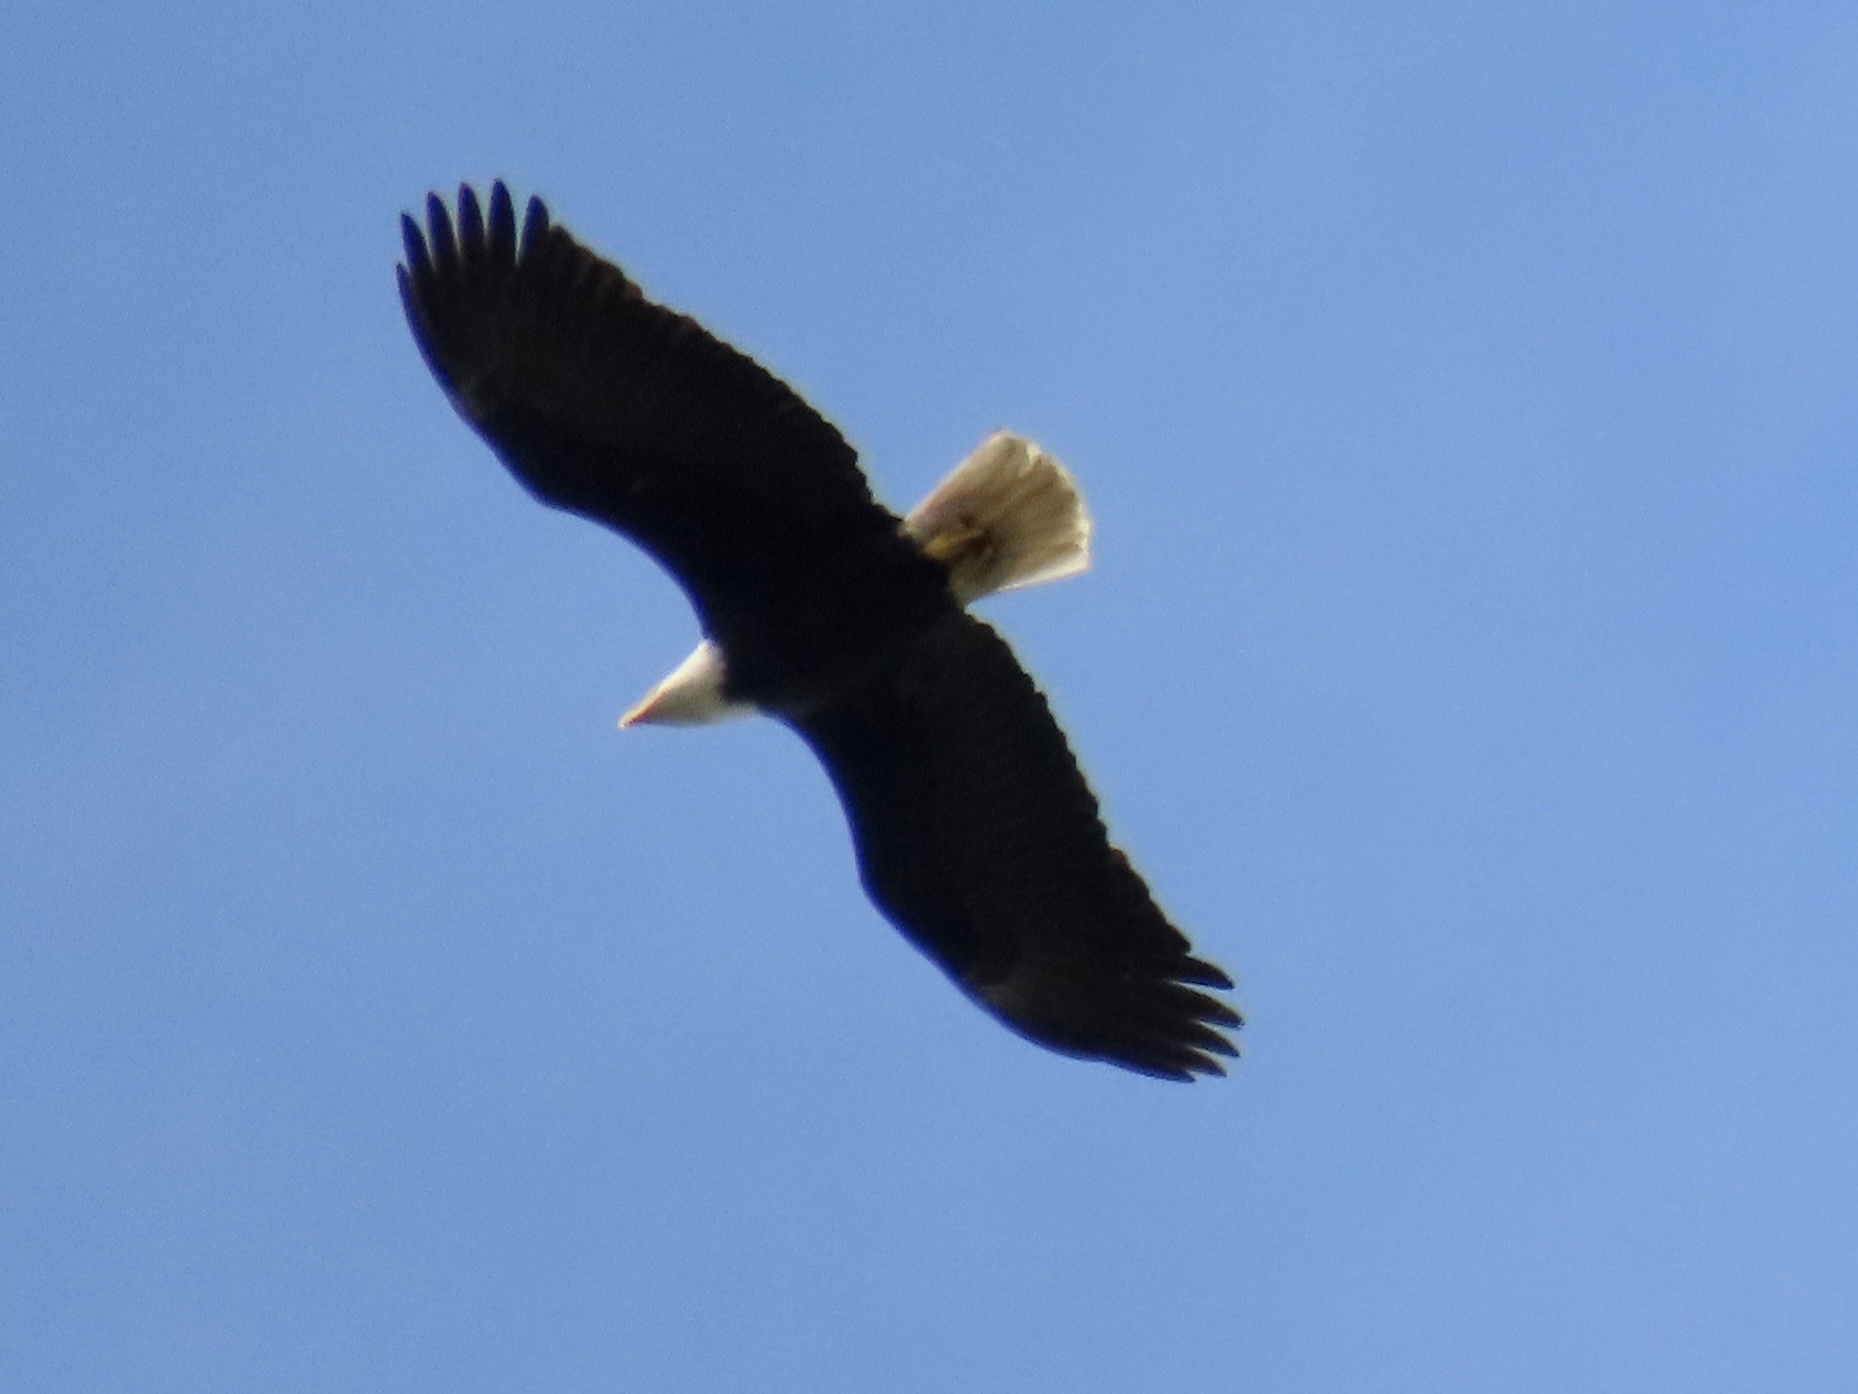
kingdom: Animalia
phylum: Chordata
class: Aves
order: Accipitriformes
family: Accipitridae
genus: Haliaeetus
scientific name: Haliaeetus leucocephalus
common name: Bald eagle
